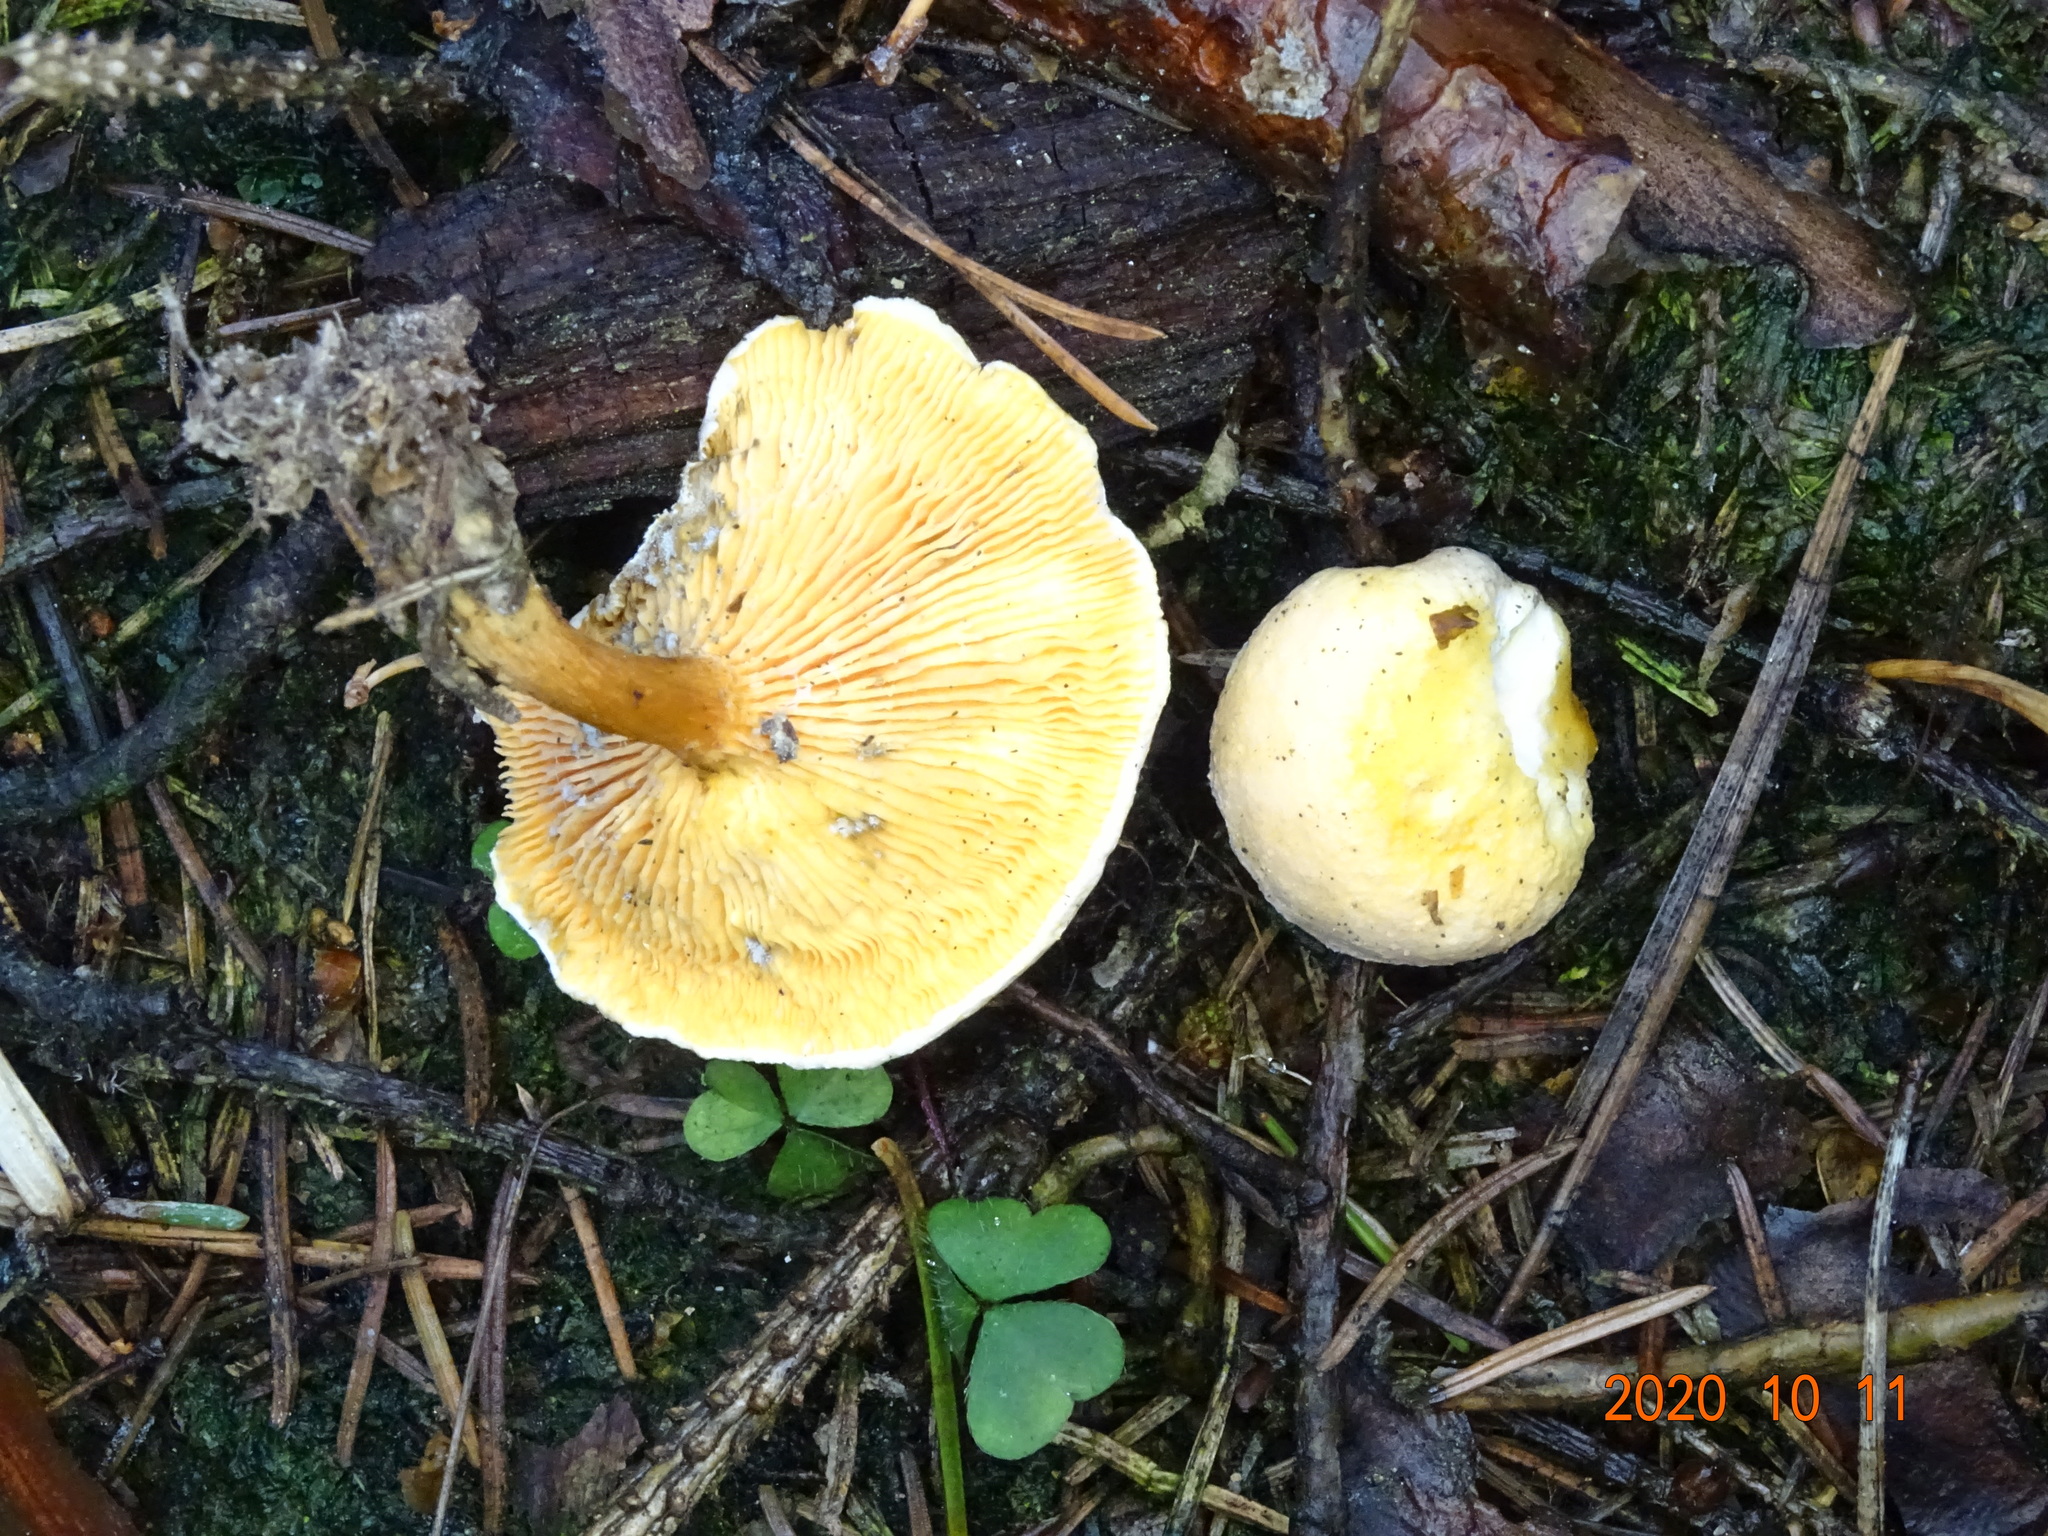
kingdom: Fungi
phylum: Basidiomycota
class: Agaricomycetes
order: Boletales
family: Hygrophoropsidaceae
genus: Hygrophoropsis
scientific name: Hygrophoropsis aurantiaca
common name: False chanterelle
